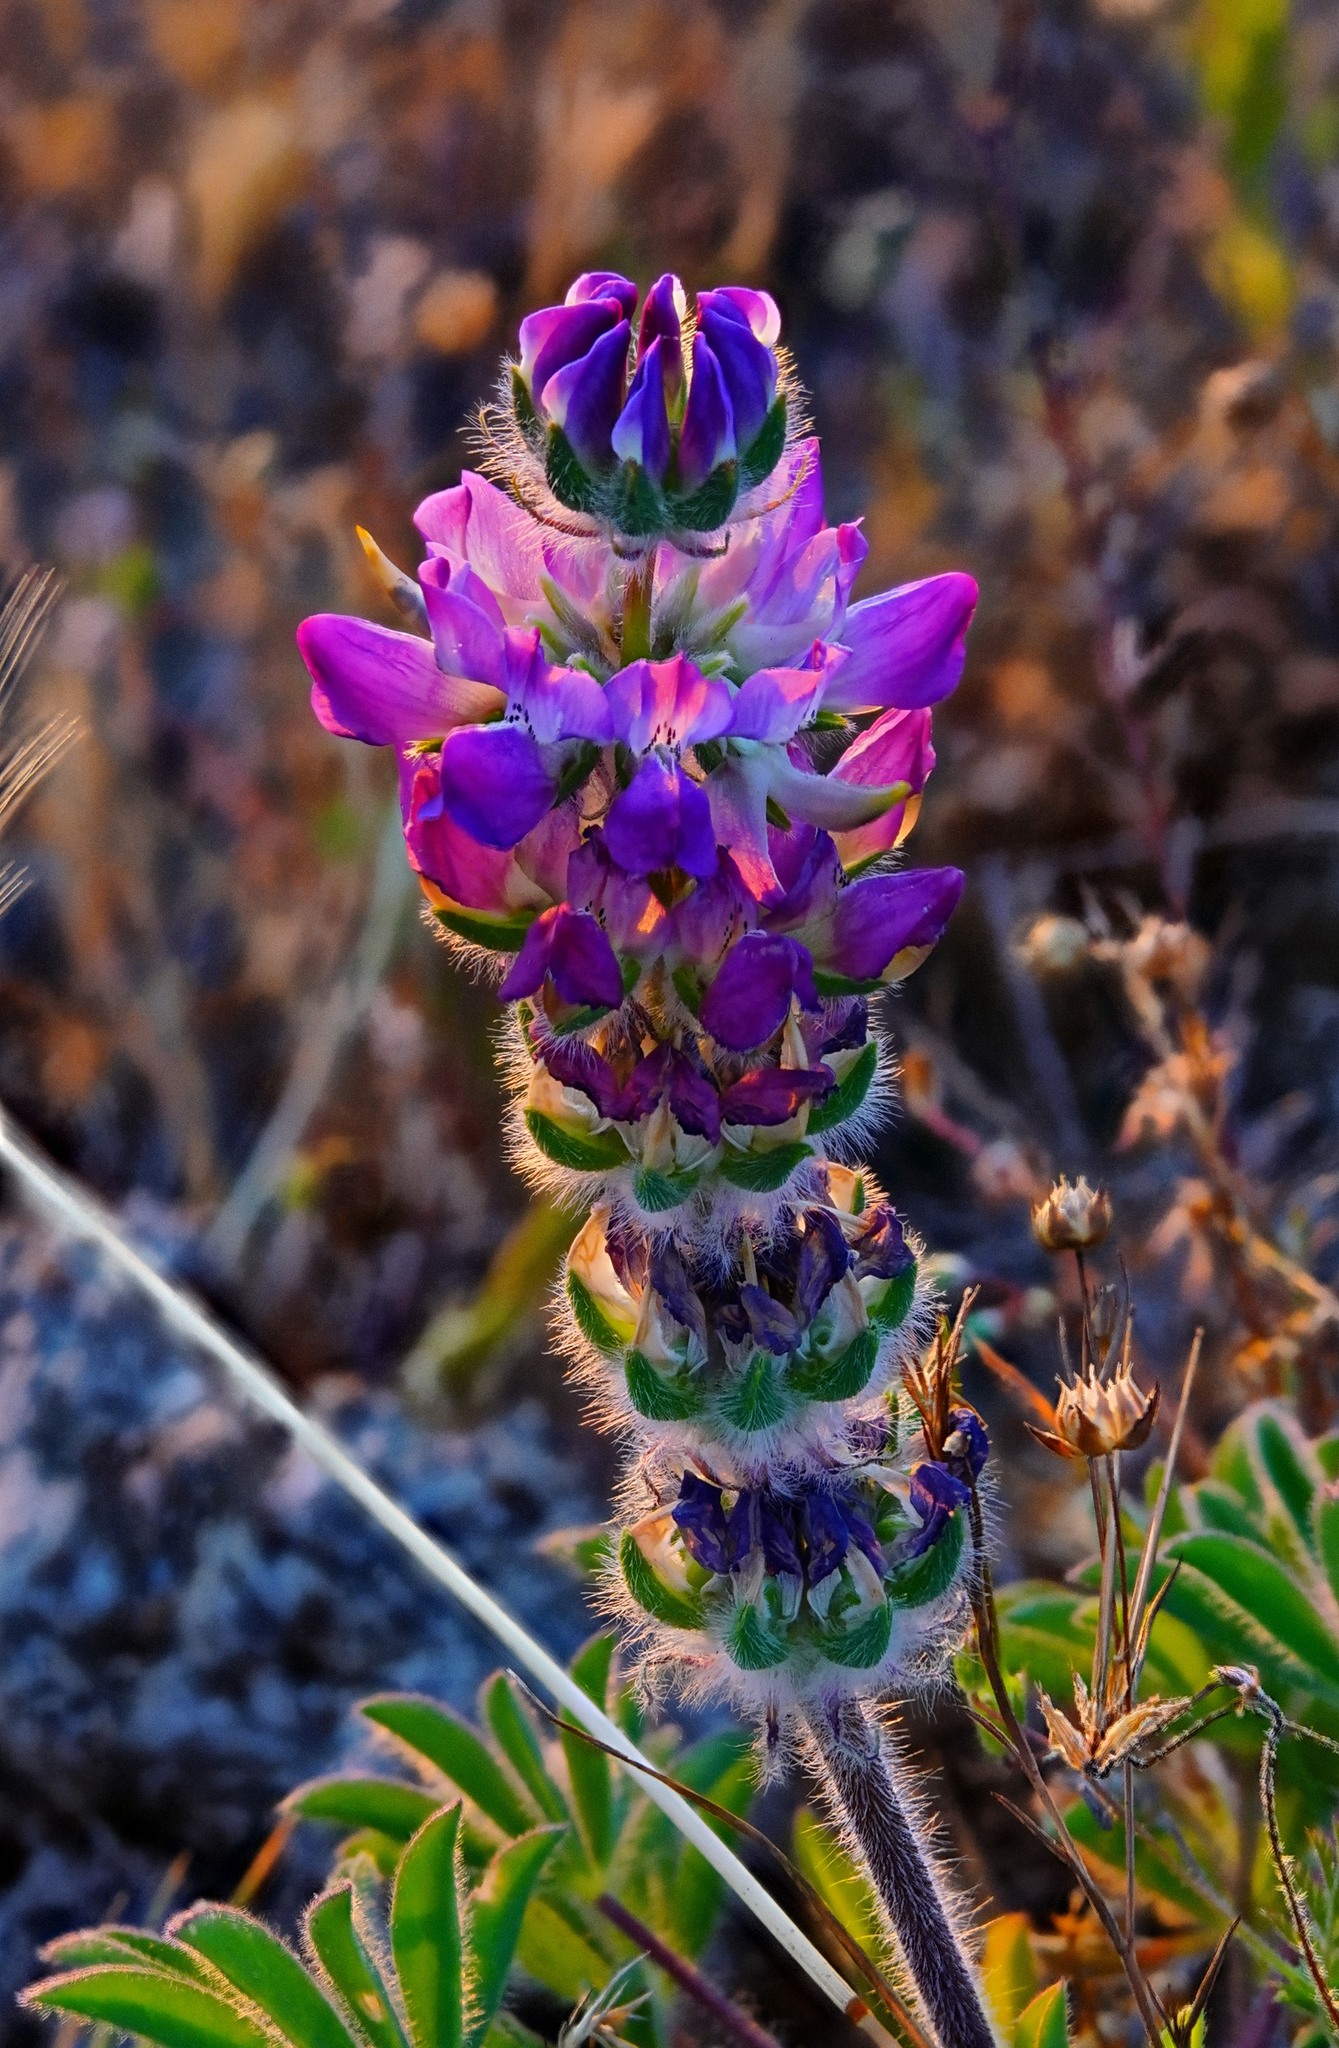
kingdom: Plantae
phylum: Tracheophyta
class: Magnoliopsida
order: Fabales
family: Fabaceae
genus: Lupinus
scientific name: Lupinus microcarpus
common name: Chick lupine
